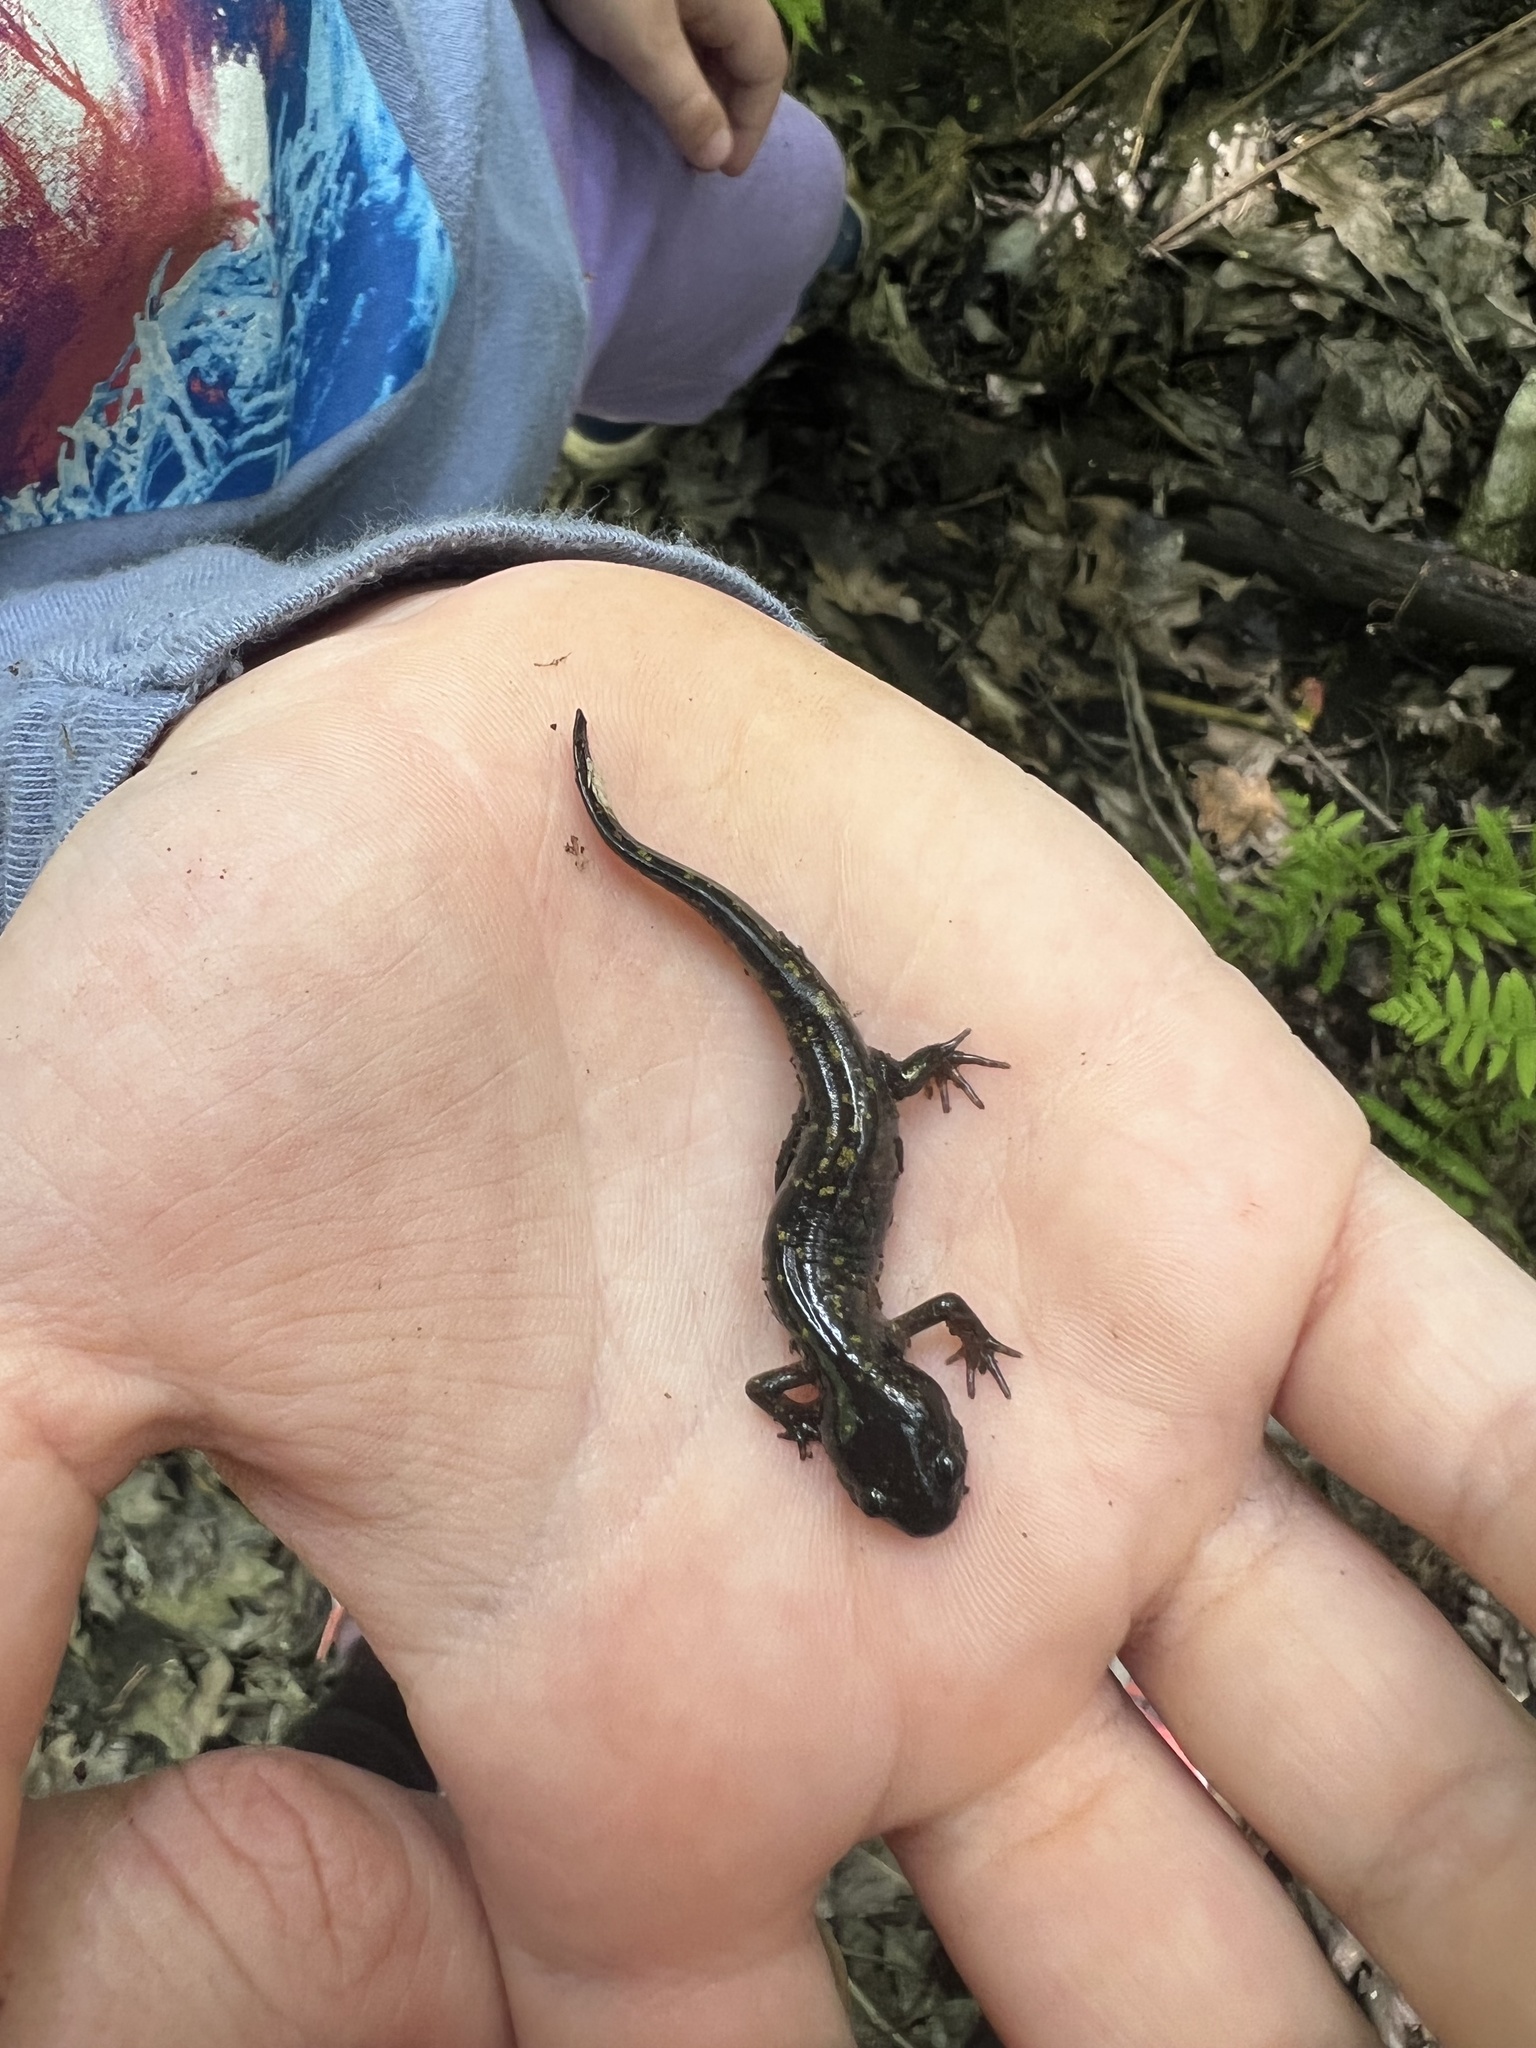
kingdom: Animalia
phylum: Chordata
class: Amphibia
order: Caudata
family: Ambystomatidae
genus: Ambystoma
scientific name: Ambystoma maculatum
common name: Spotted salamander
